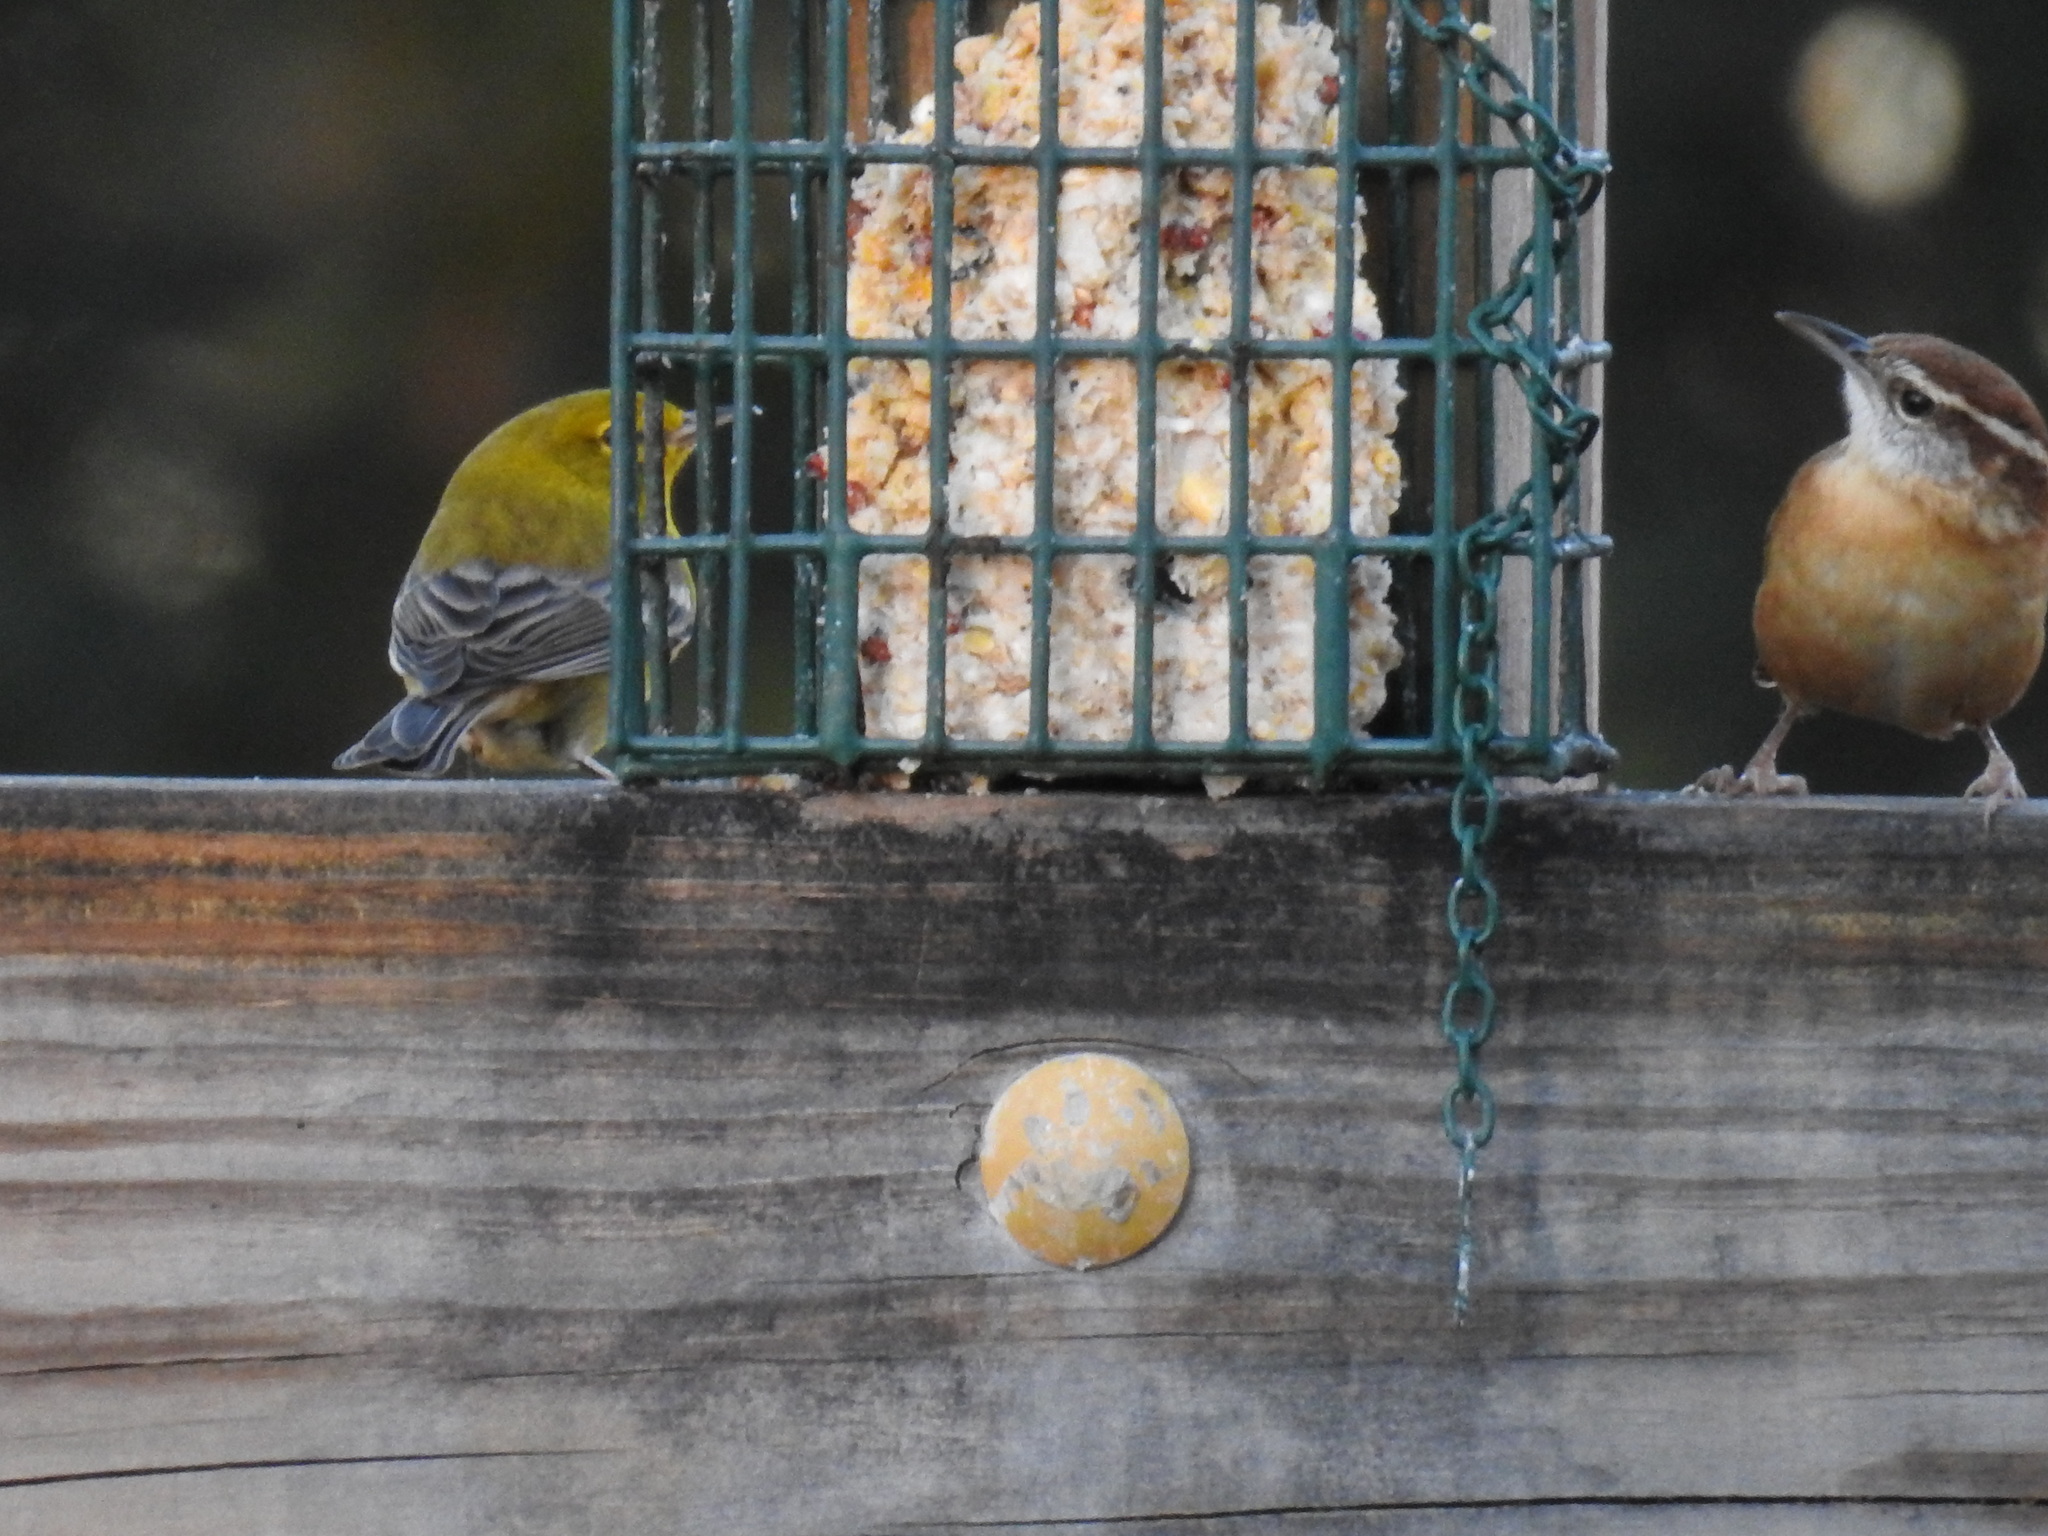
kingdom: Animalia
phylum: Chordata
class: Aves
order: Passeriformes
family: Parulidae
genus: Setophaga
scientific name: Setophaga pinus
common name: Pine warbler
